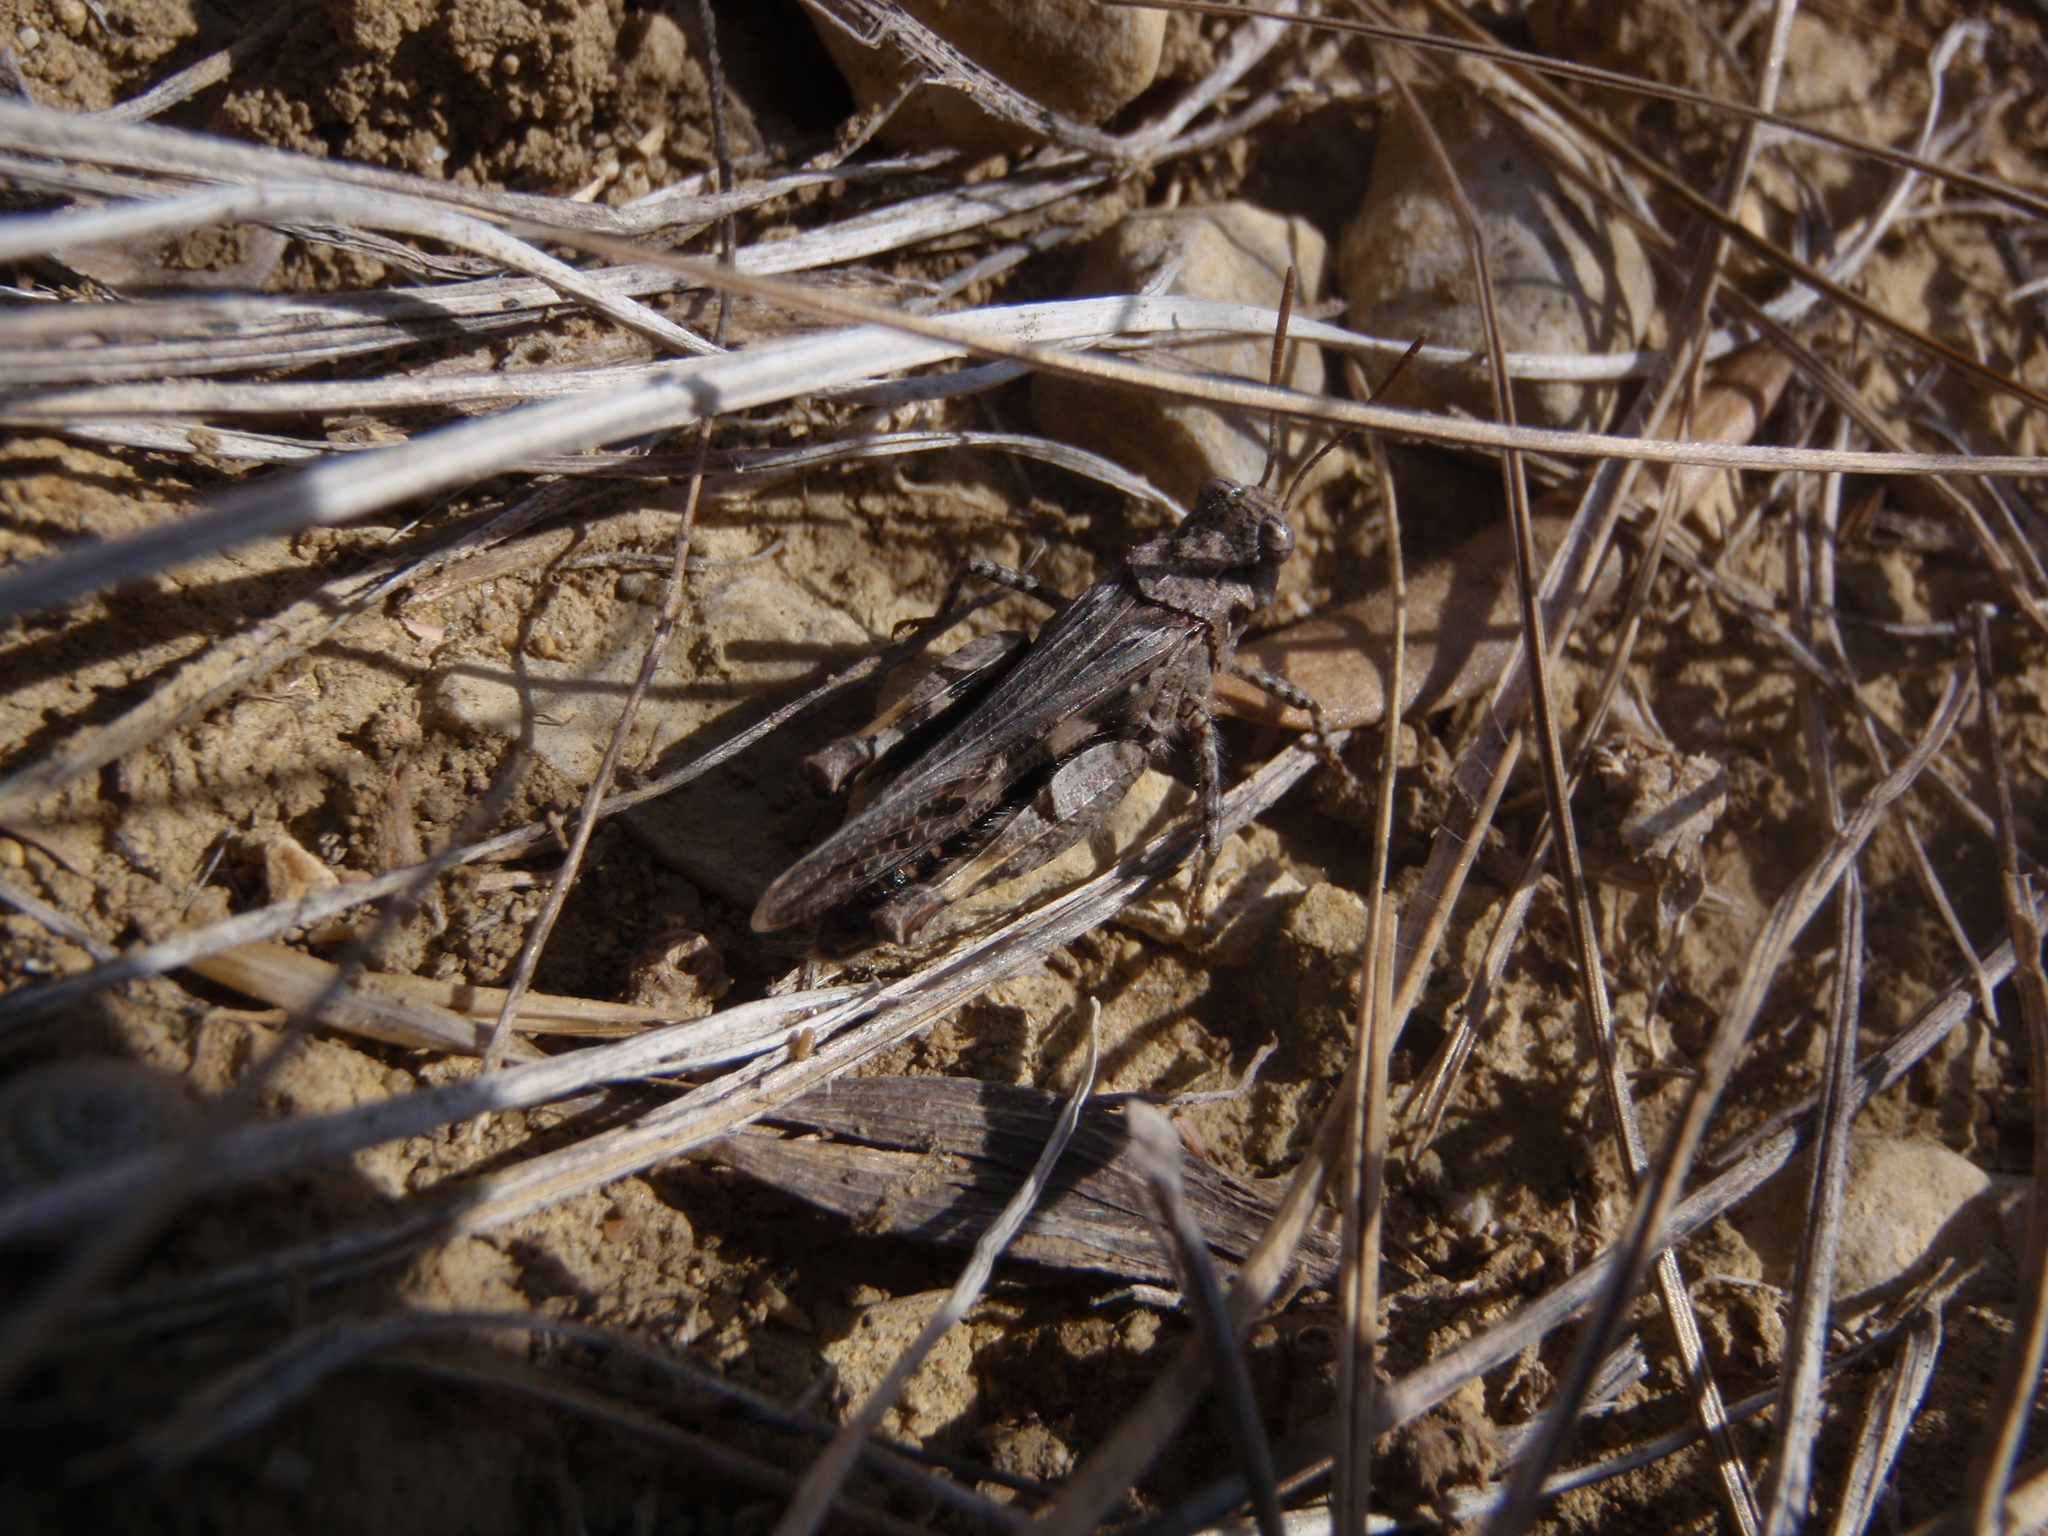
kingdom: Animalia
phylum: Arthropoda
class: Insecta
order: Orthoptera
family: Acrididae
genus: Acrotylus
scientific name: Acrotylus fischeri
